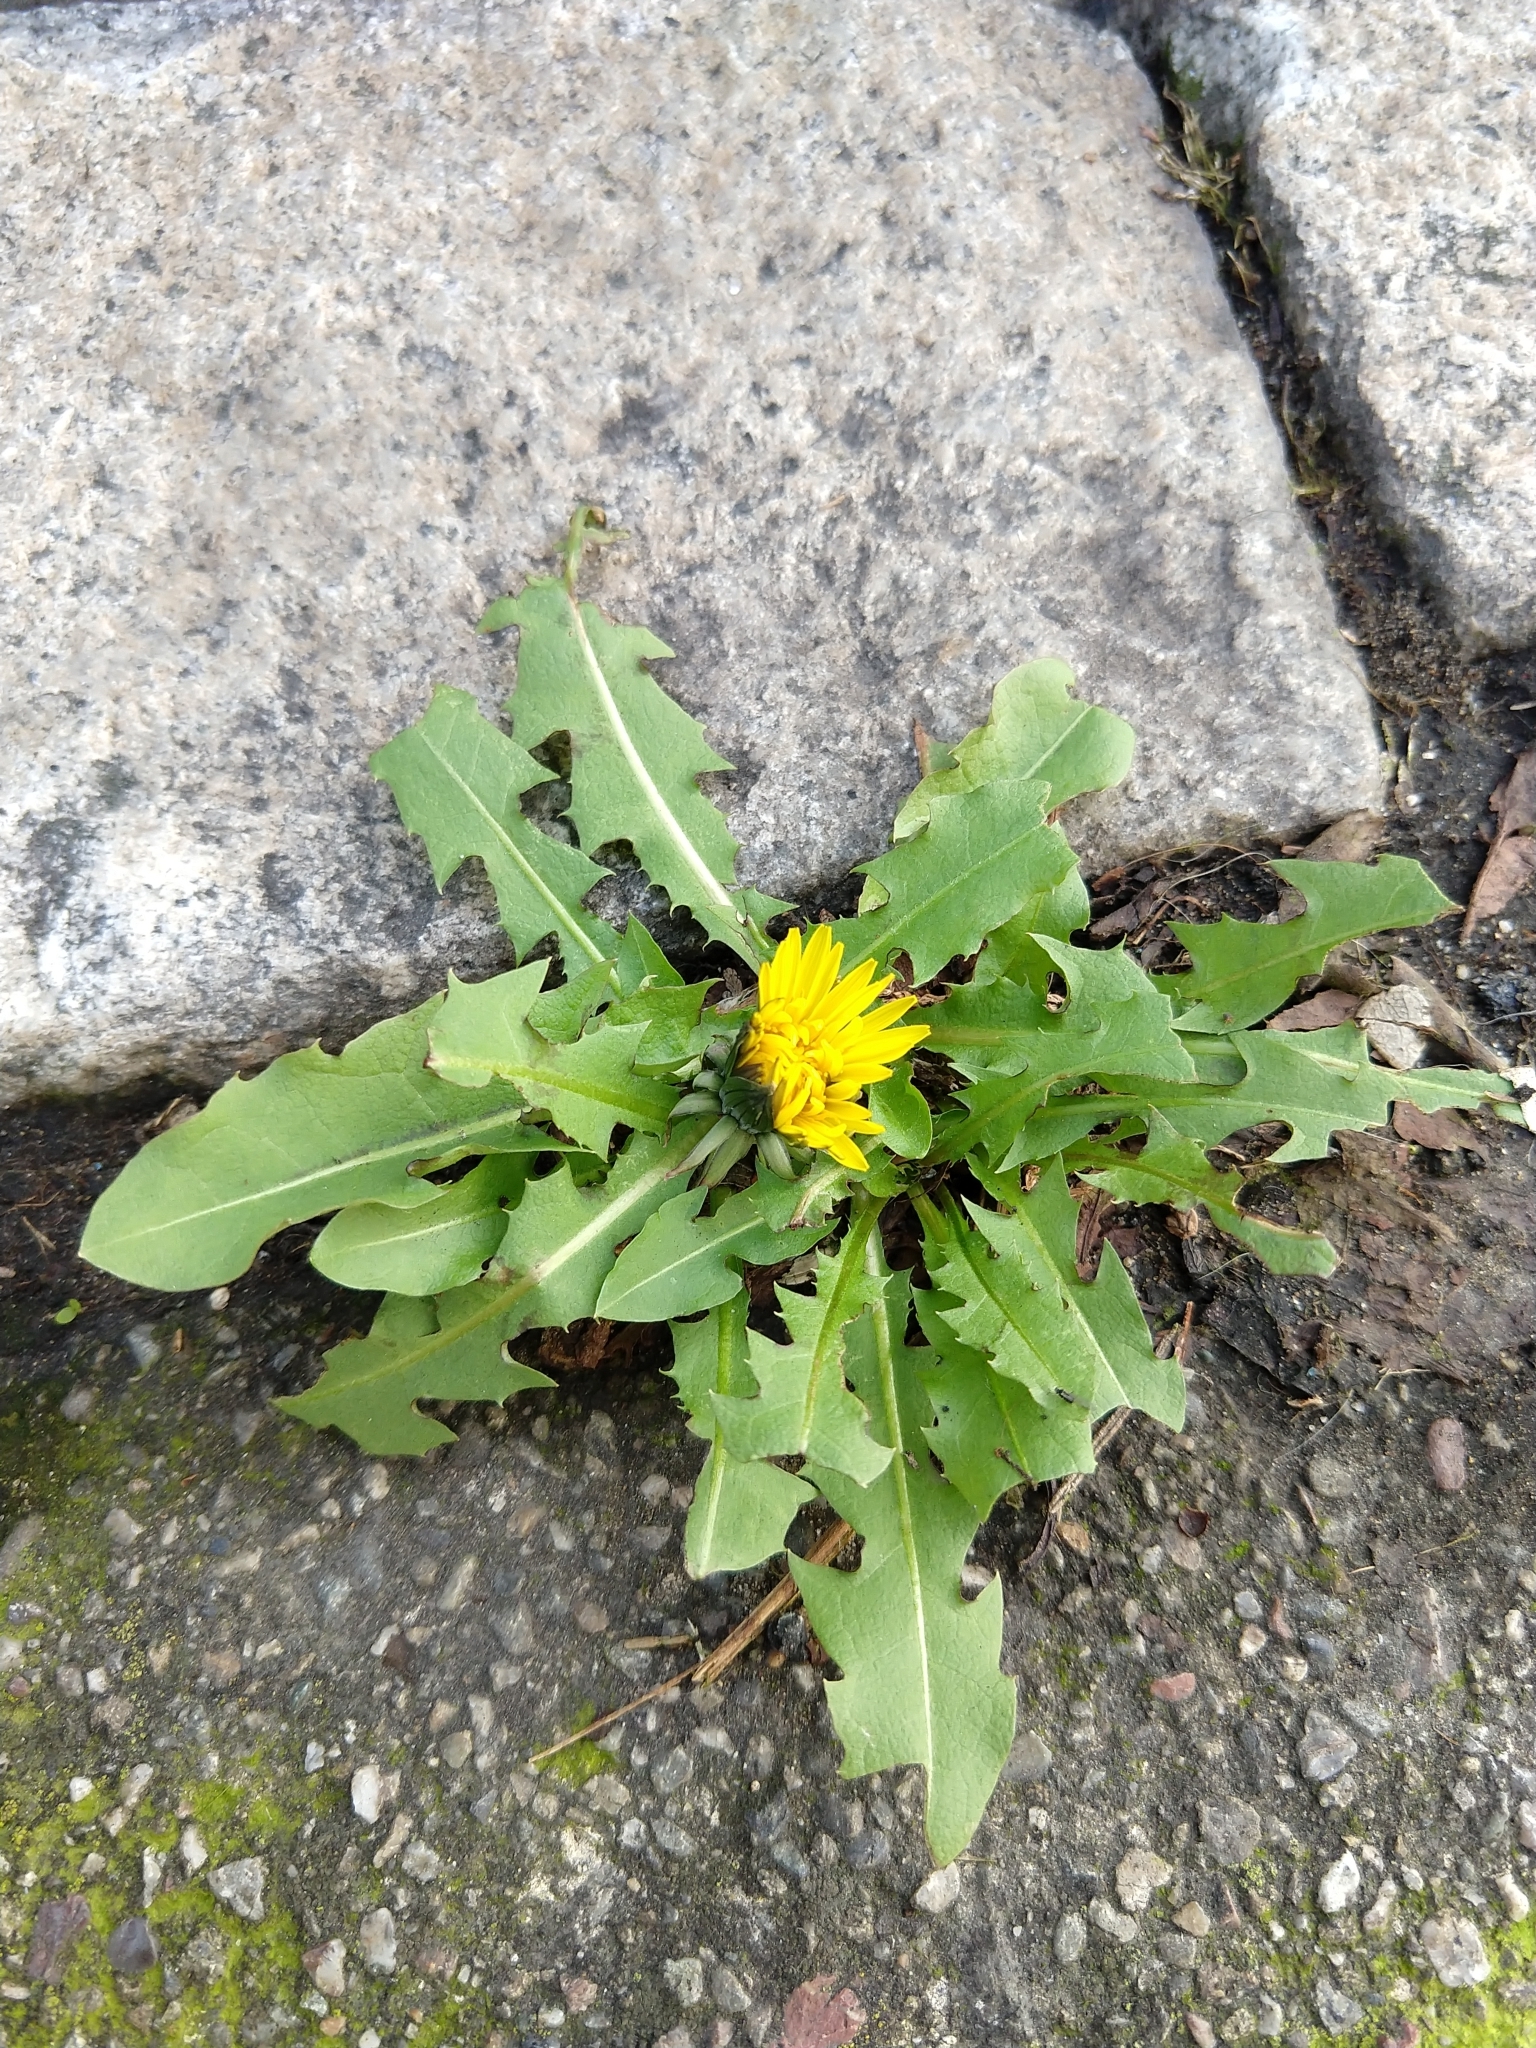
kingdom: Plantae
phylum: Tracheophyta
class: Magnoliopsida
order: Asterales
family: Asteraceae
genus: Taraxacum
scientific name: Taraxacum officinale
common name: Common dandelion
